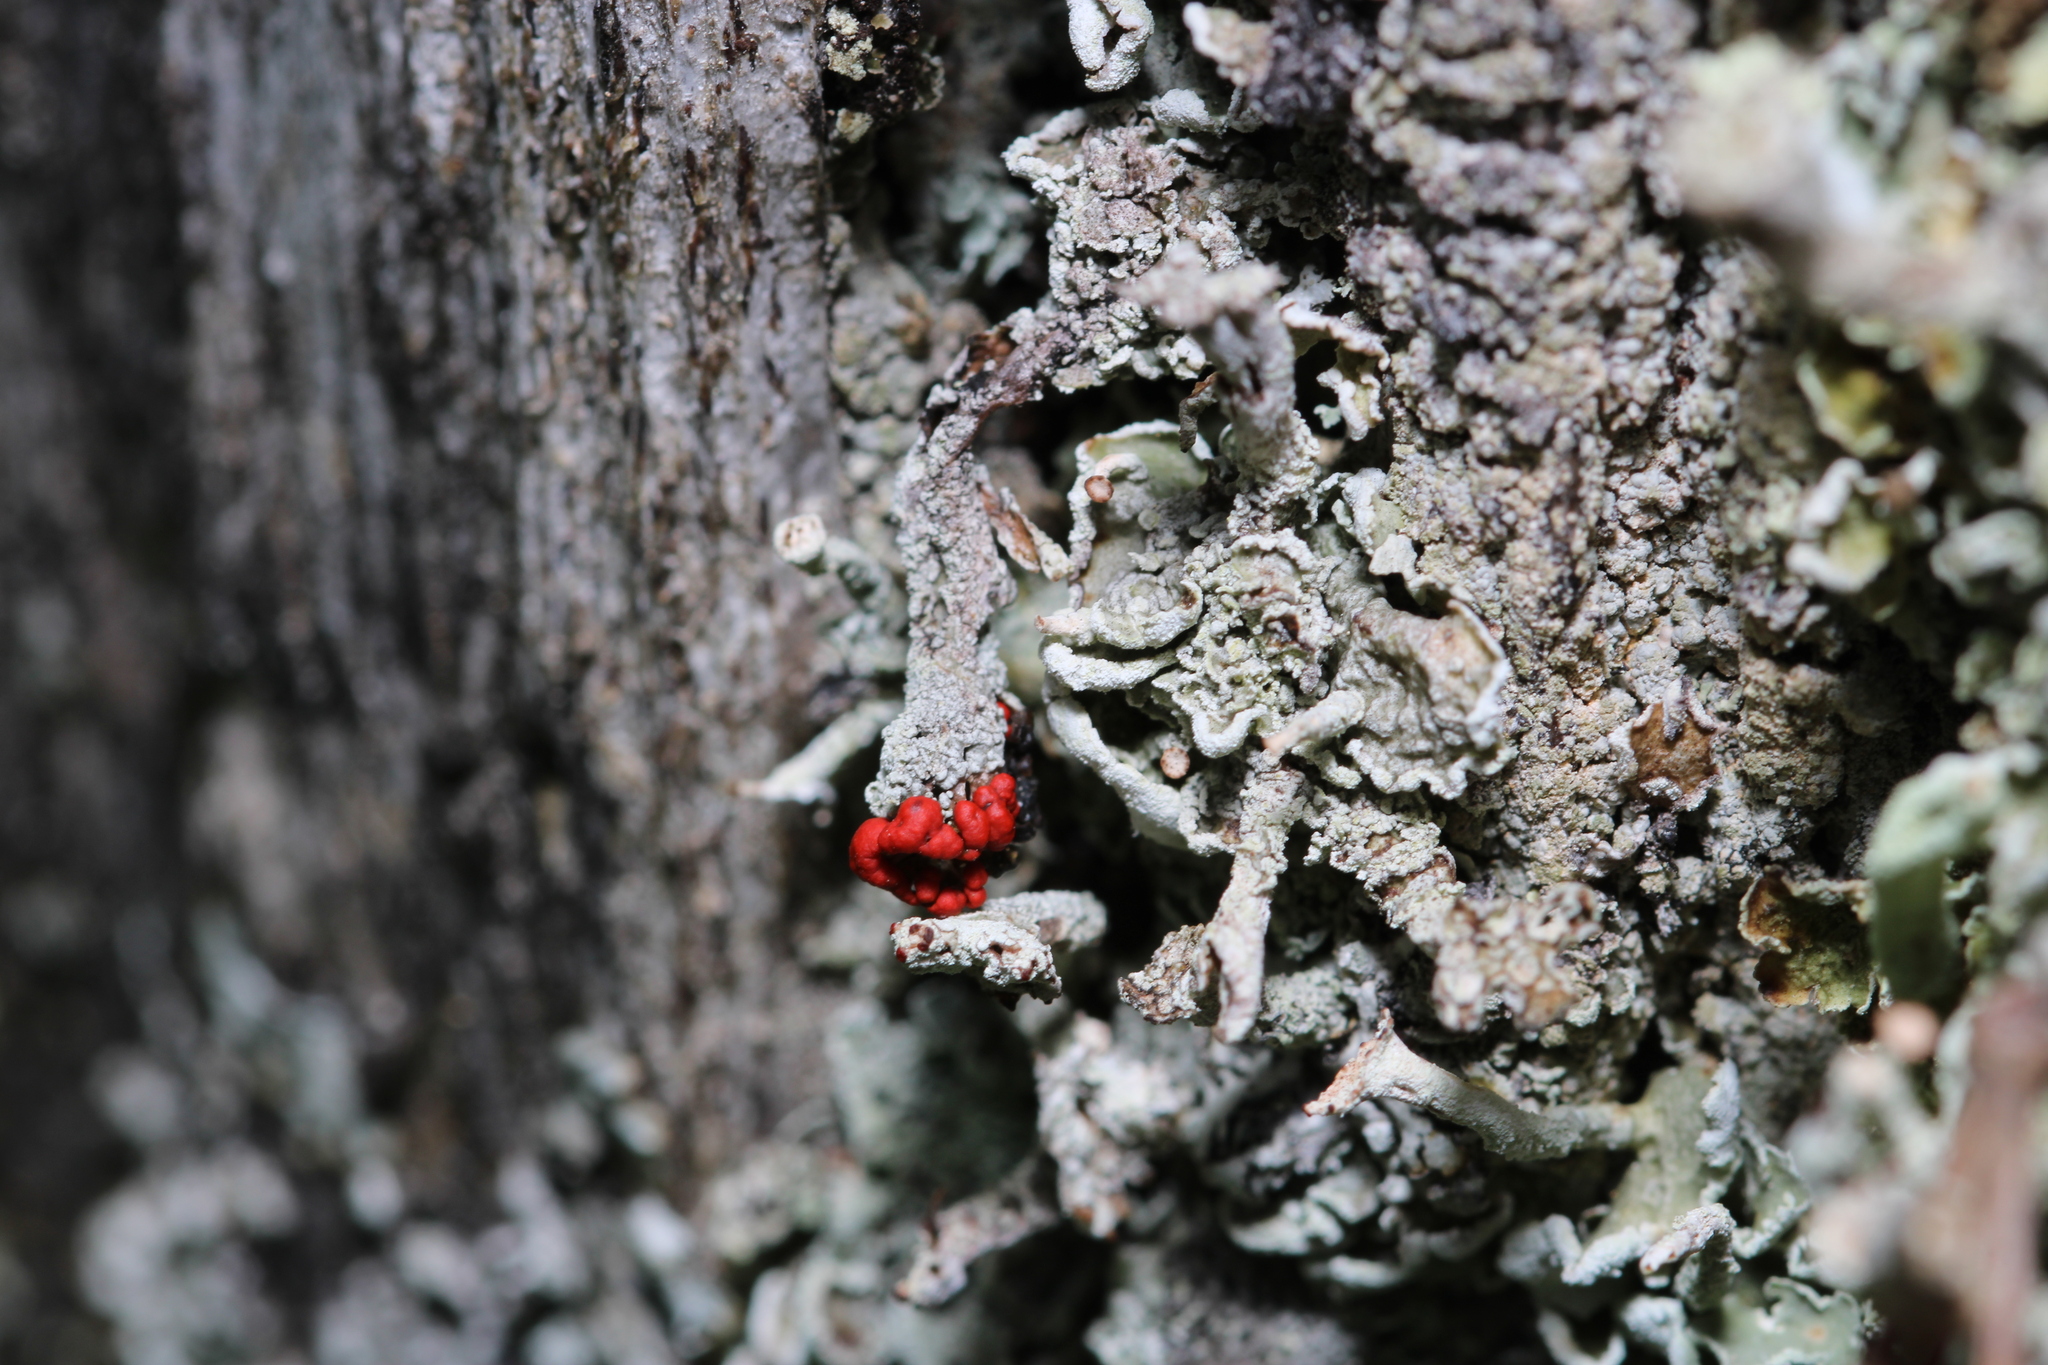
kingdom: Fungi
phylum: Ascomycota
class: Lecanoromycetes
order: Lecanorales
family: Cladoniaceae
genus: Cladonia
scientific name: Cladonia digitata
